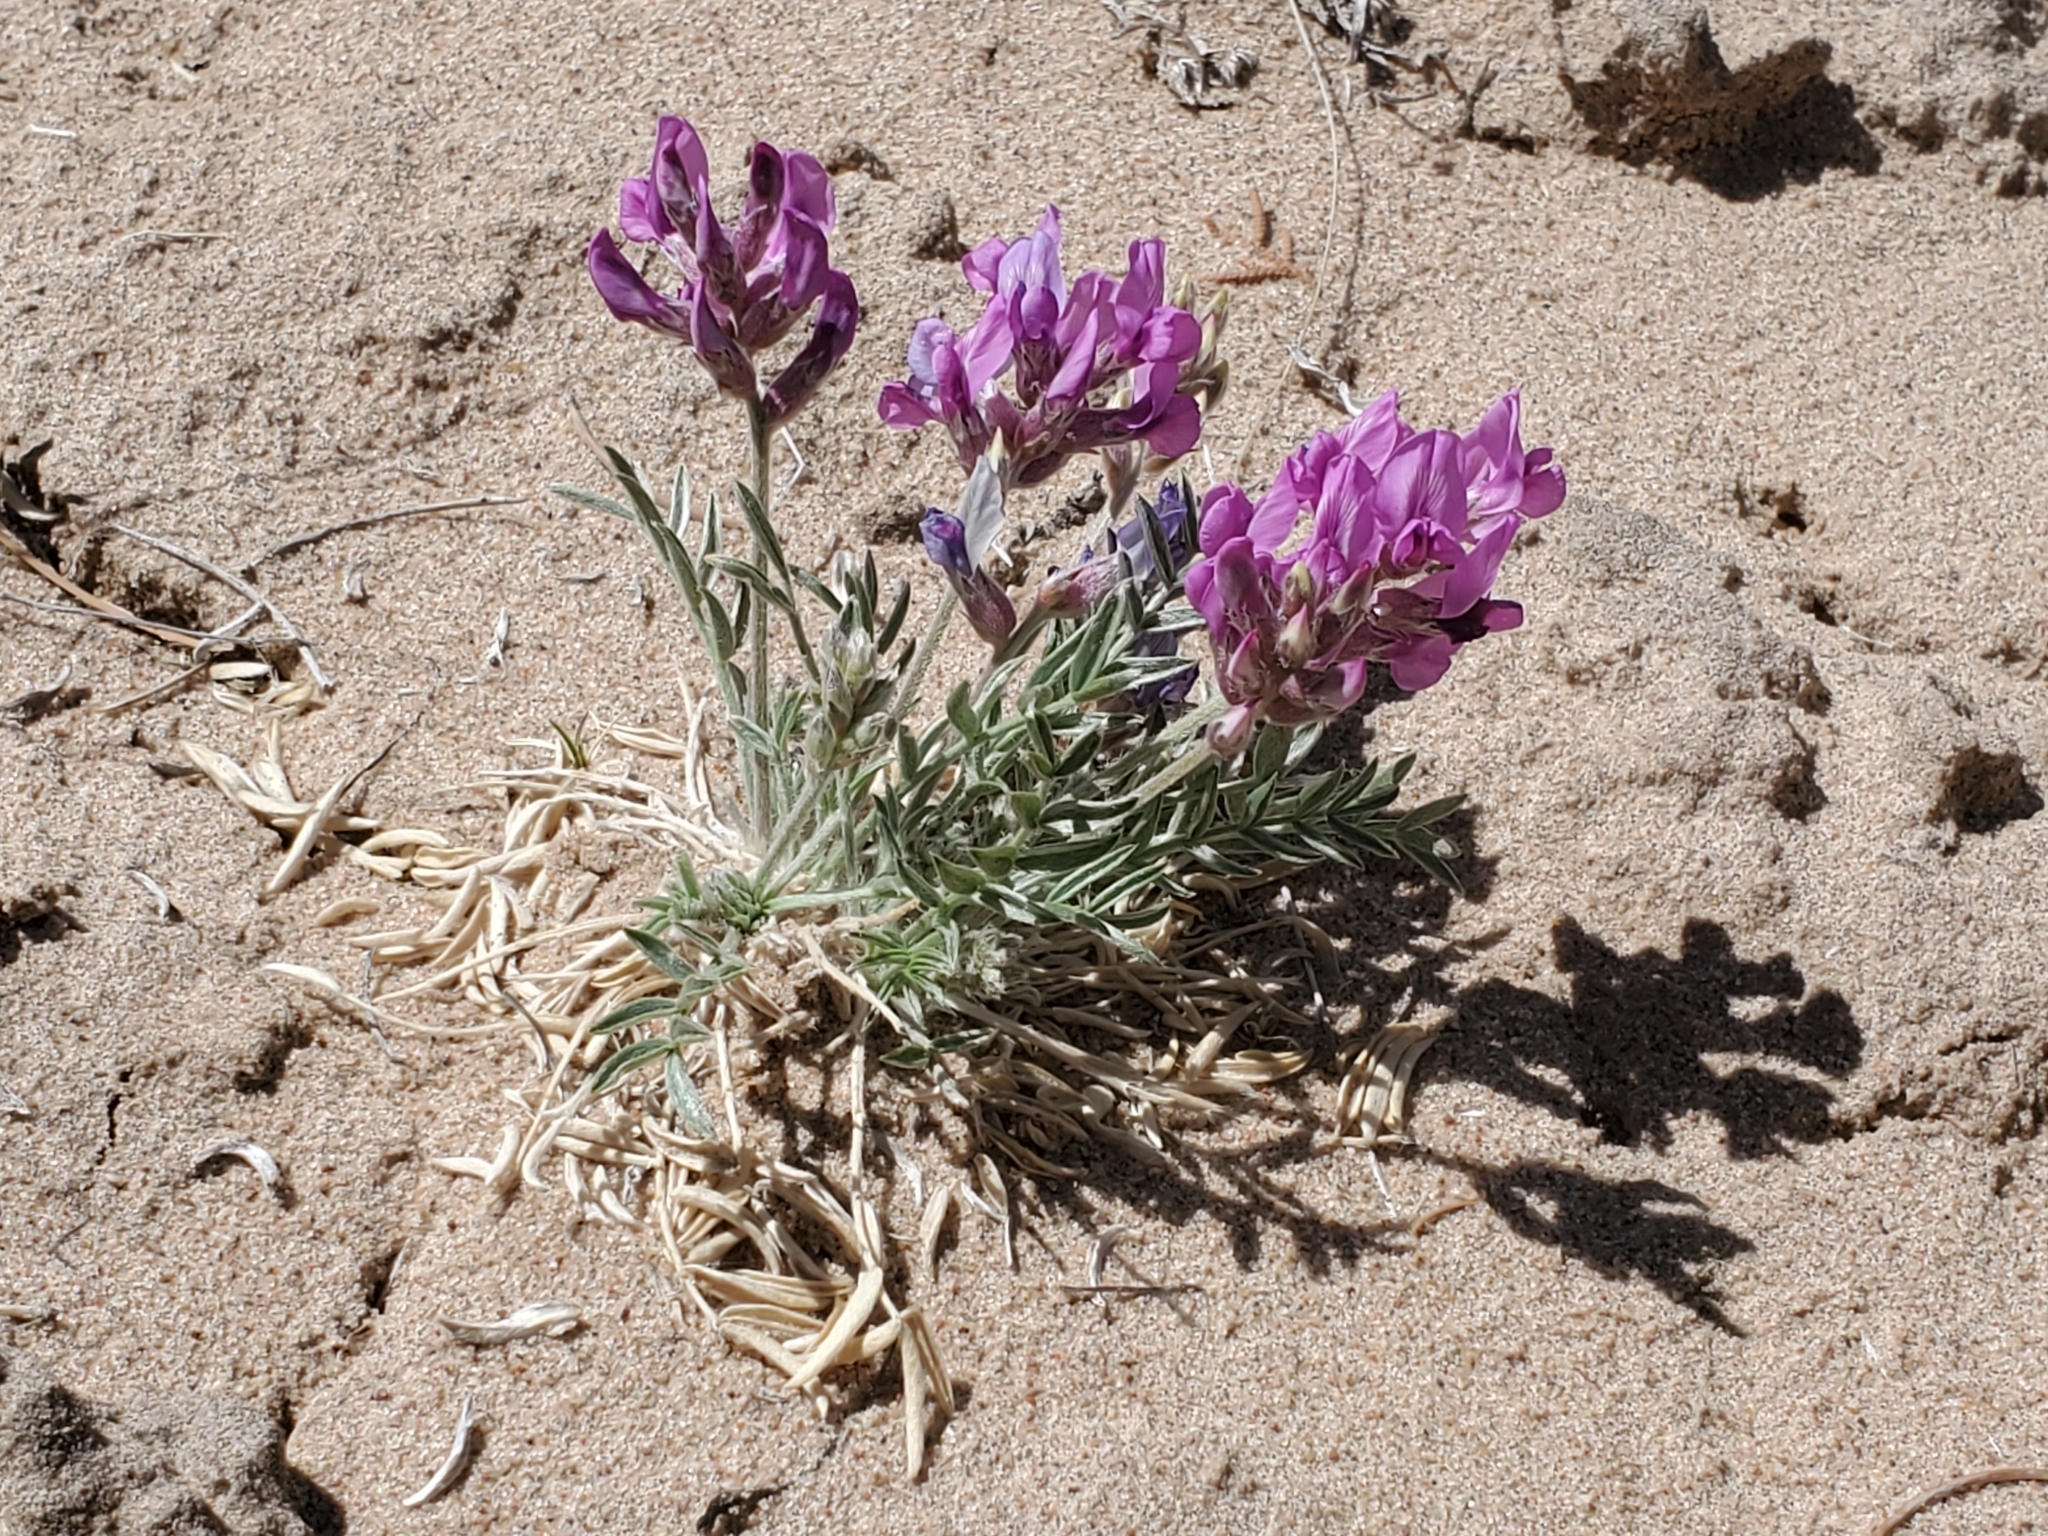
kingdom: Plantae
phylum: Tracheophyta
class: Magnoliopsida
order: Fabales
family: Fabaceae
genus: Oxytropis
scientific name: Oxytropis lambertii
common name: Purple locoweed
